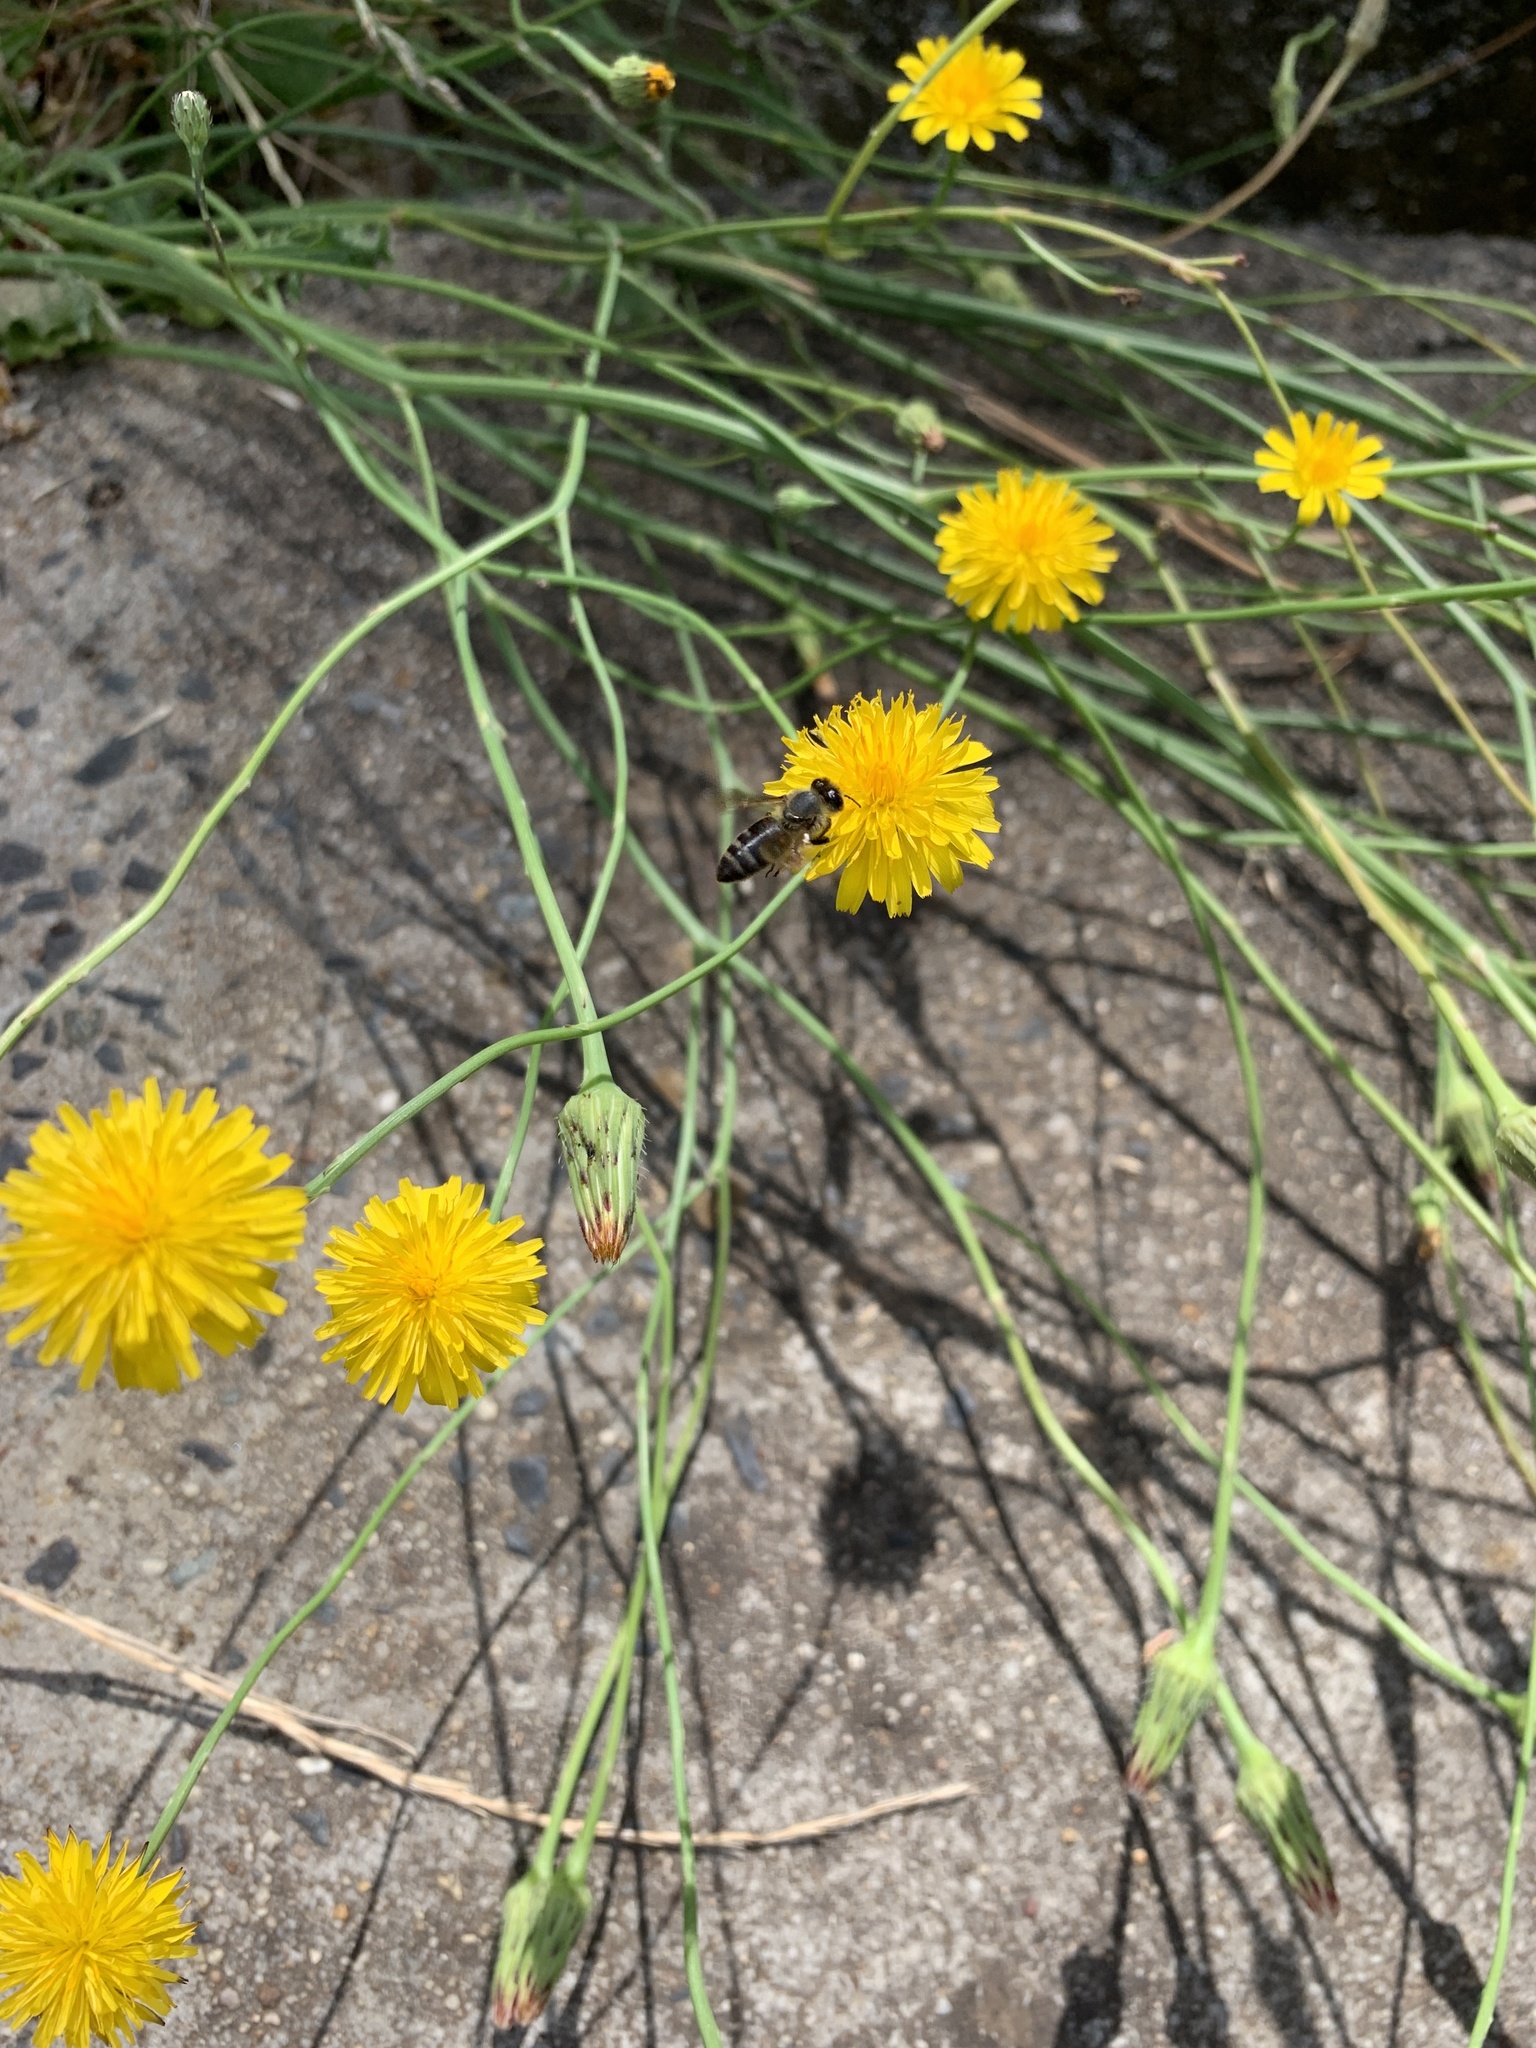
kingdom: Plantae
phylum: Tracheophyta
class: Magnoliopsida
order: Asterales
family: Asteraceae
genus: Hypochaeris
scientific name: Hypochaeris radicata
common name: Flatweed
